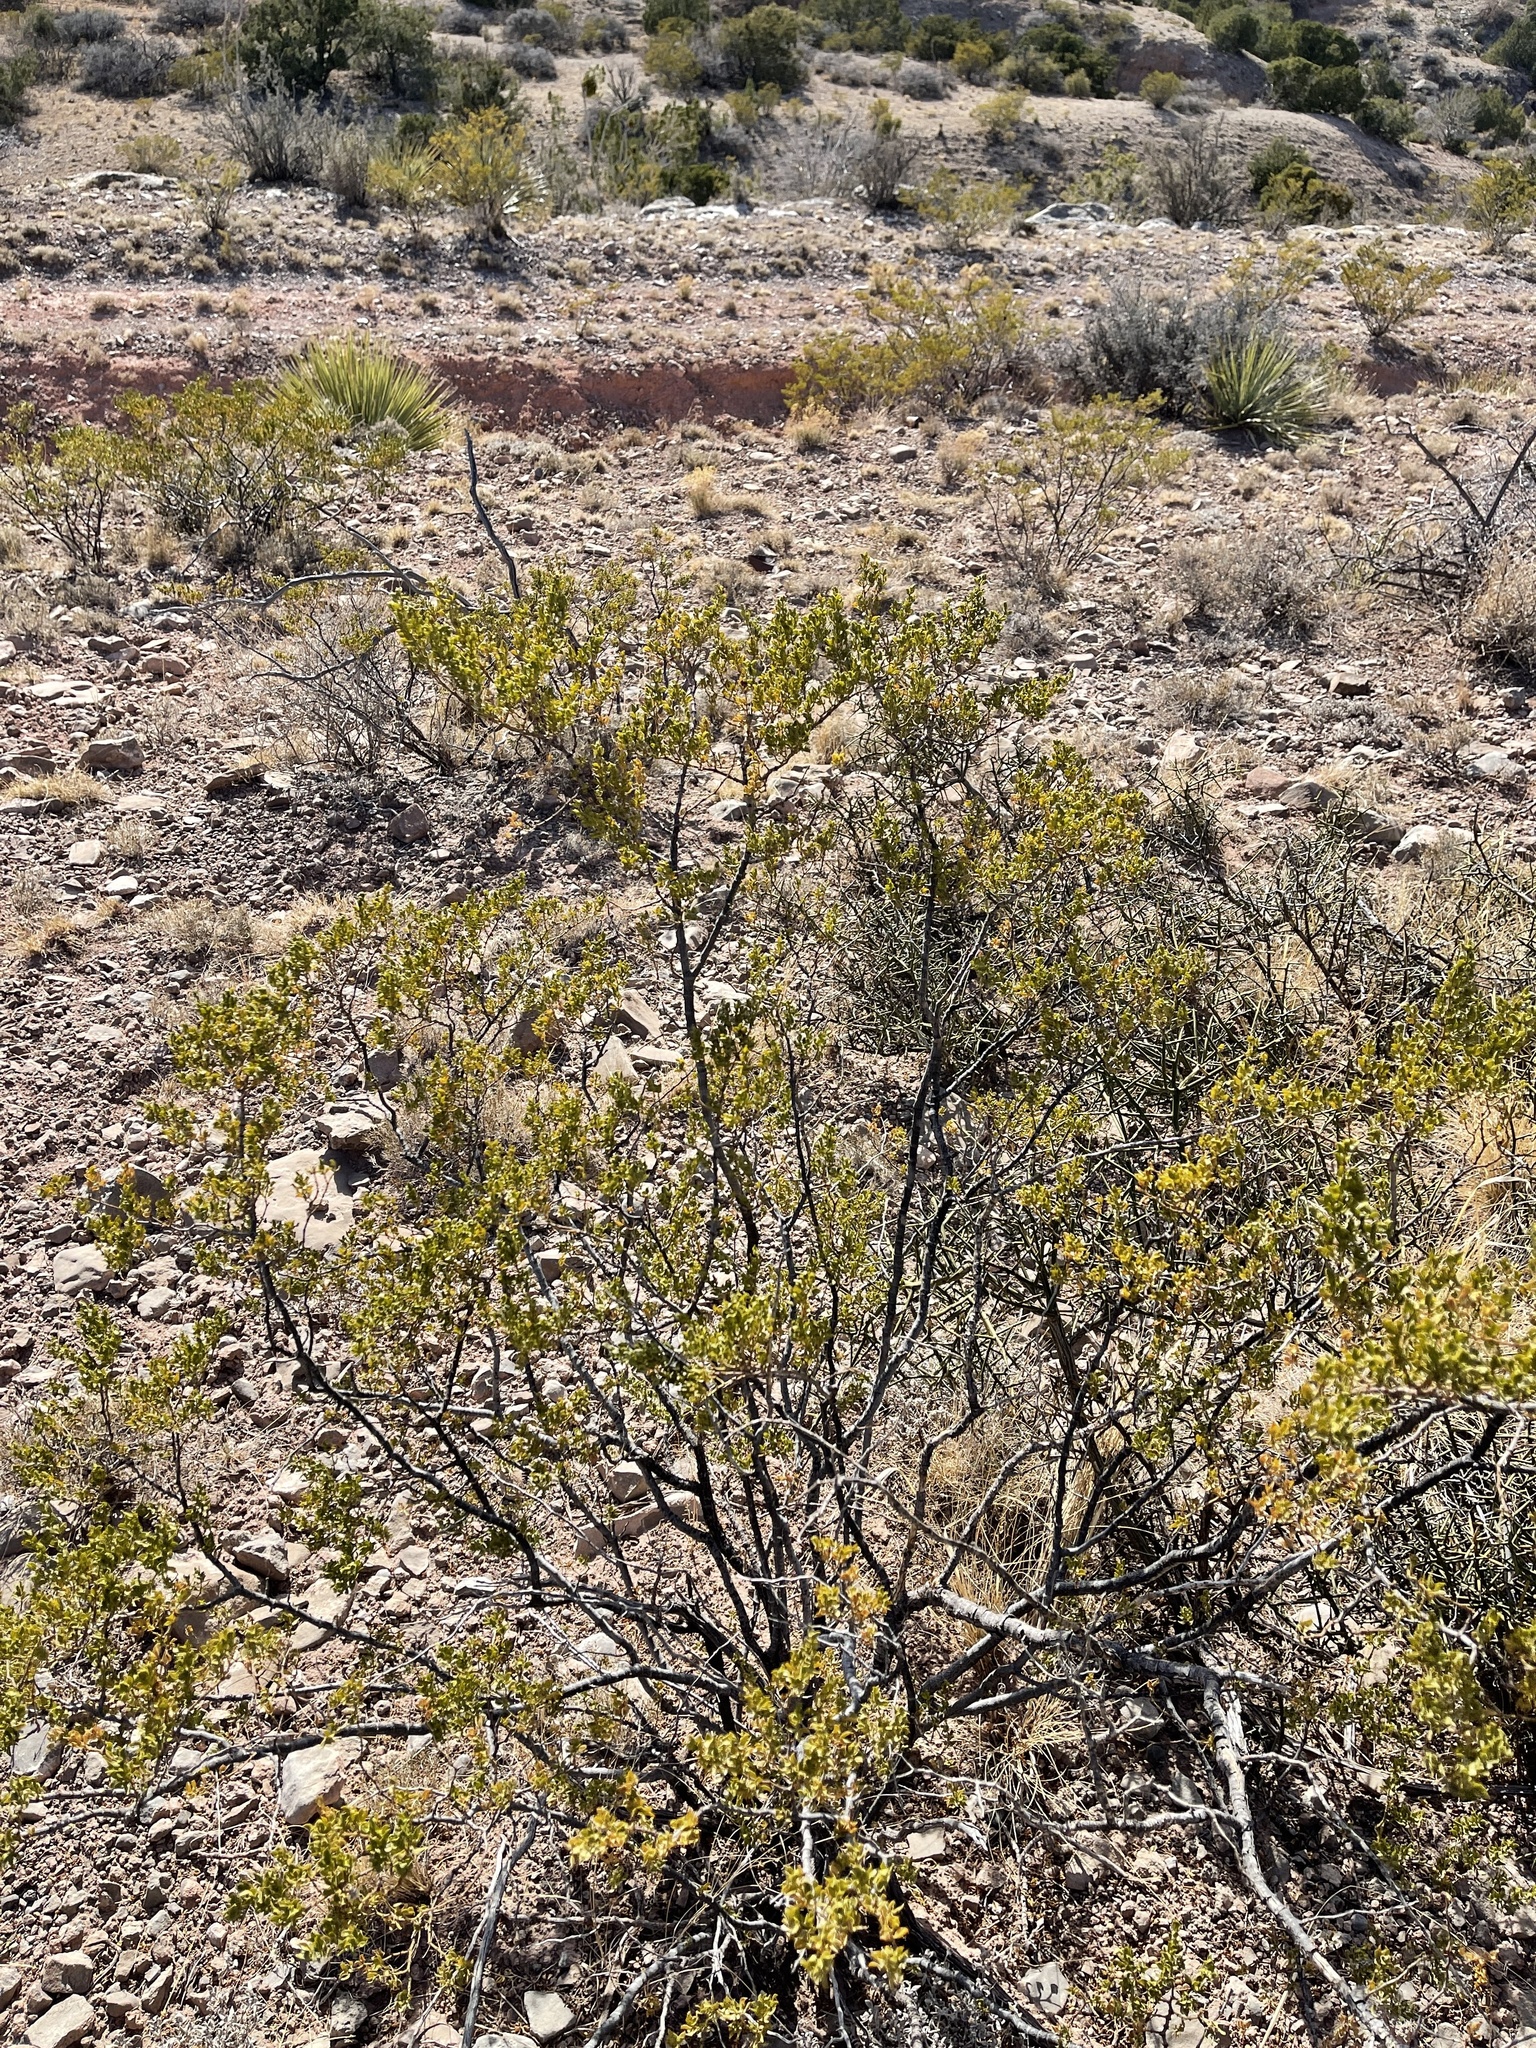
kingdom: Plantae
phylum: Tracheophyta
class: Magnoliopsida
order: Zygophyllales
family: Zygophyllaceae
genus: Larrea
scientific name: Larrea tridentata
